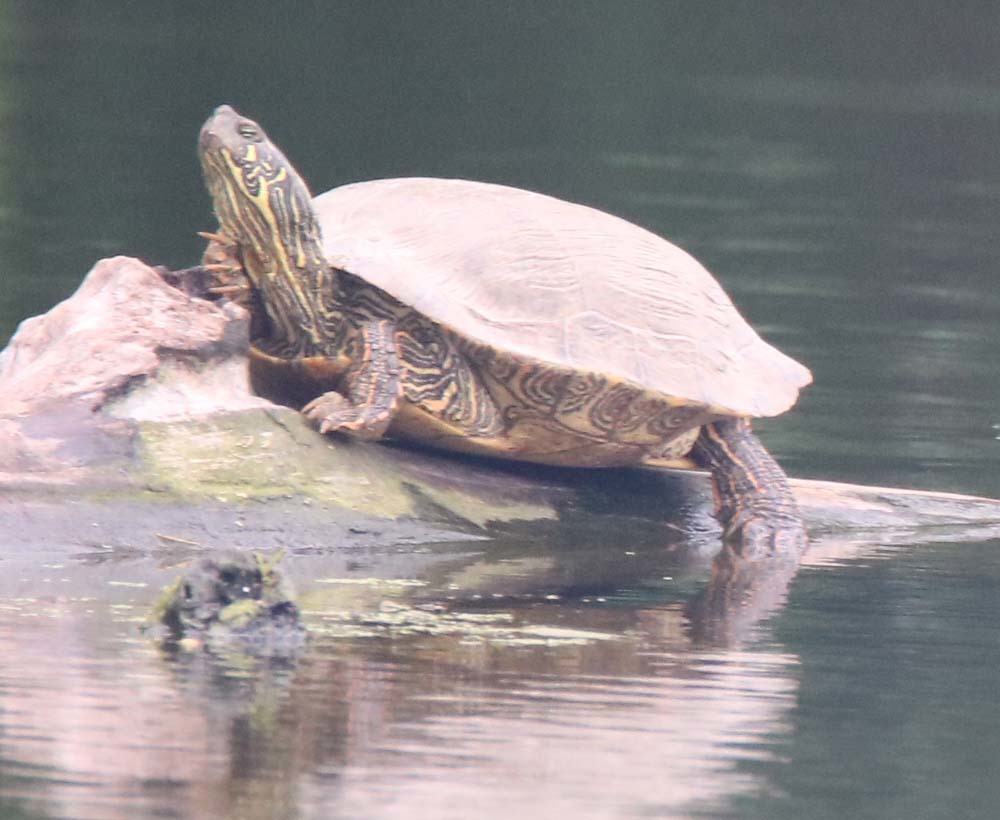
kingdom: Animalia
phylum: Chordata
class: Testudines
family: Emydidae
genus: Pseudemys
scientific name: Pseudemys texana
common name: Texas river cooter
